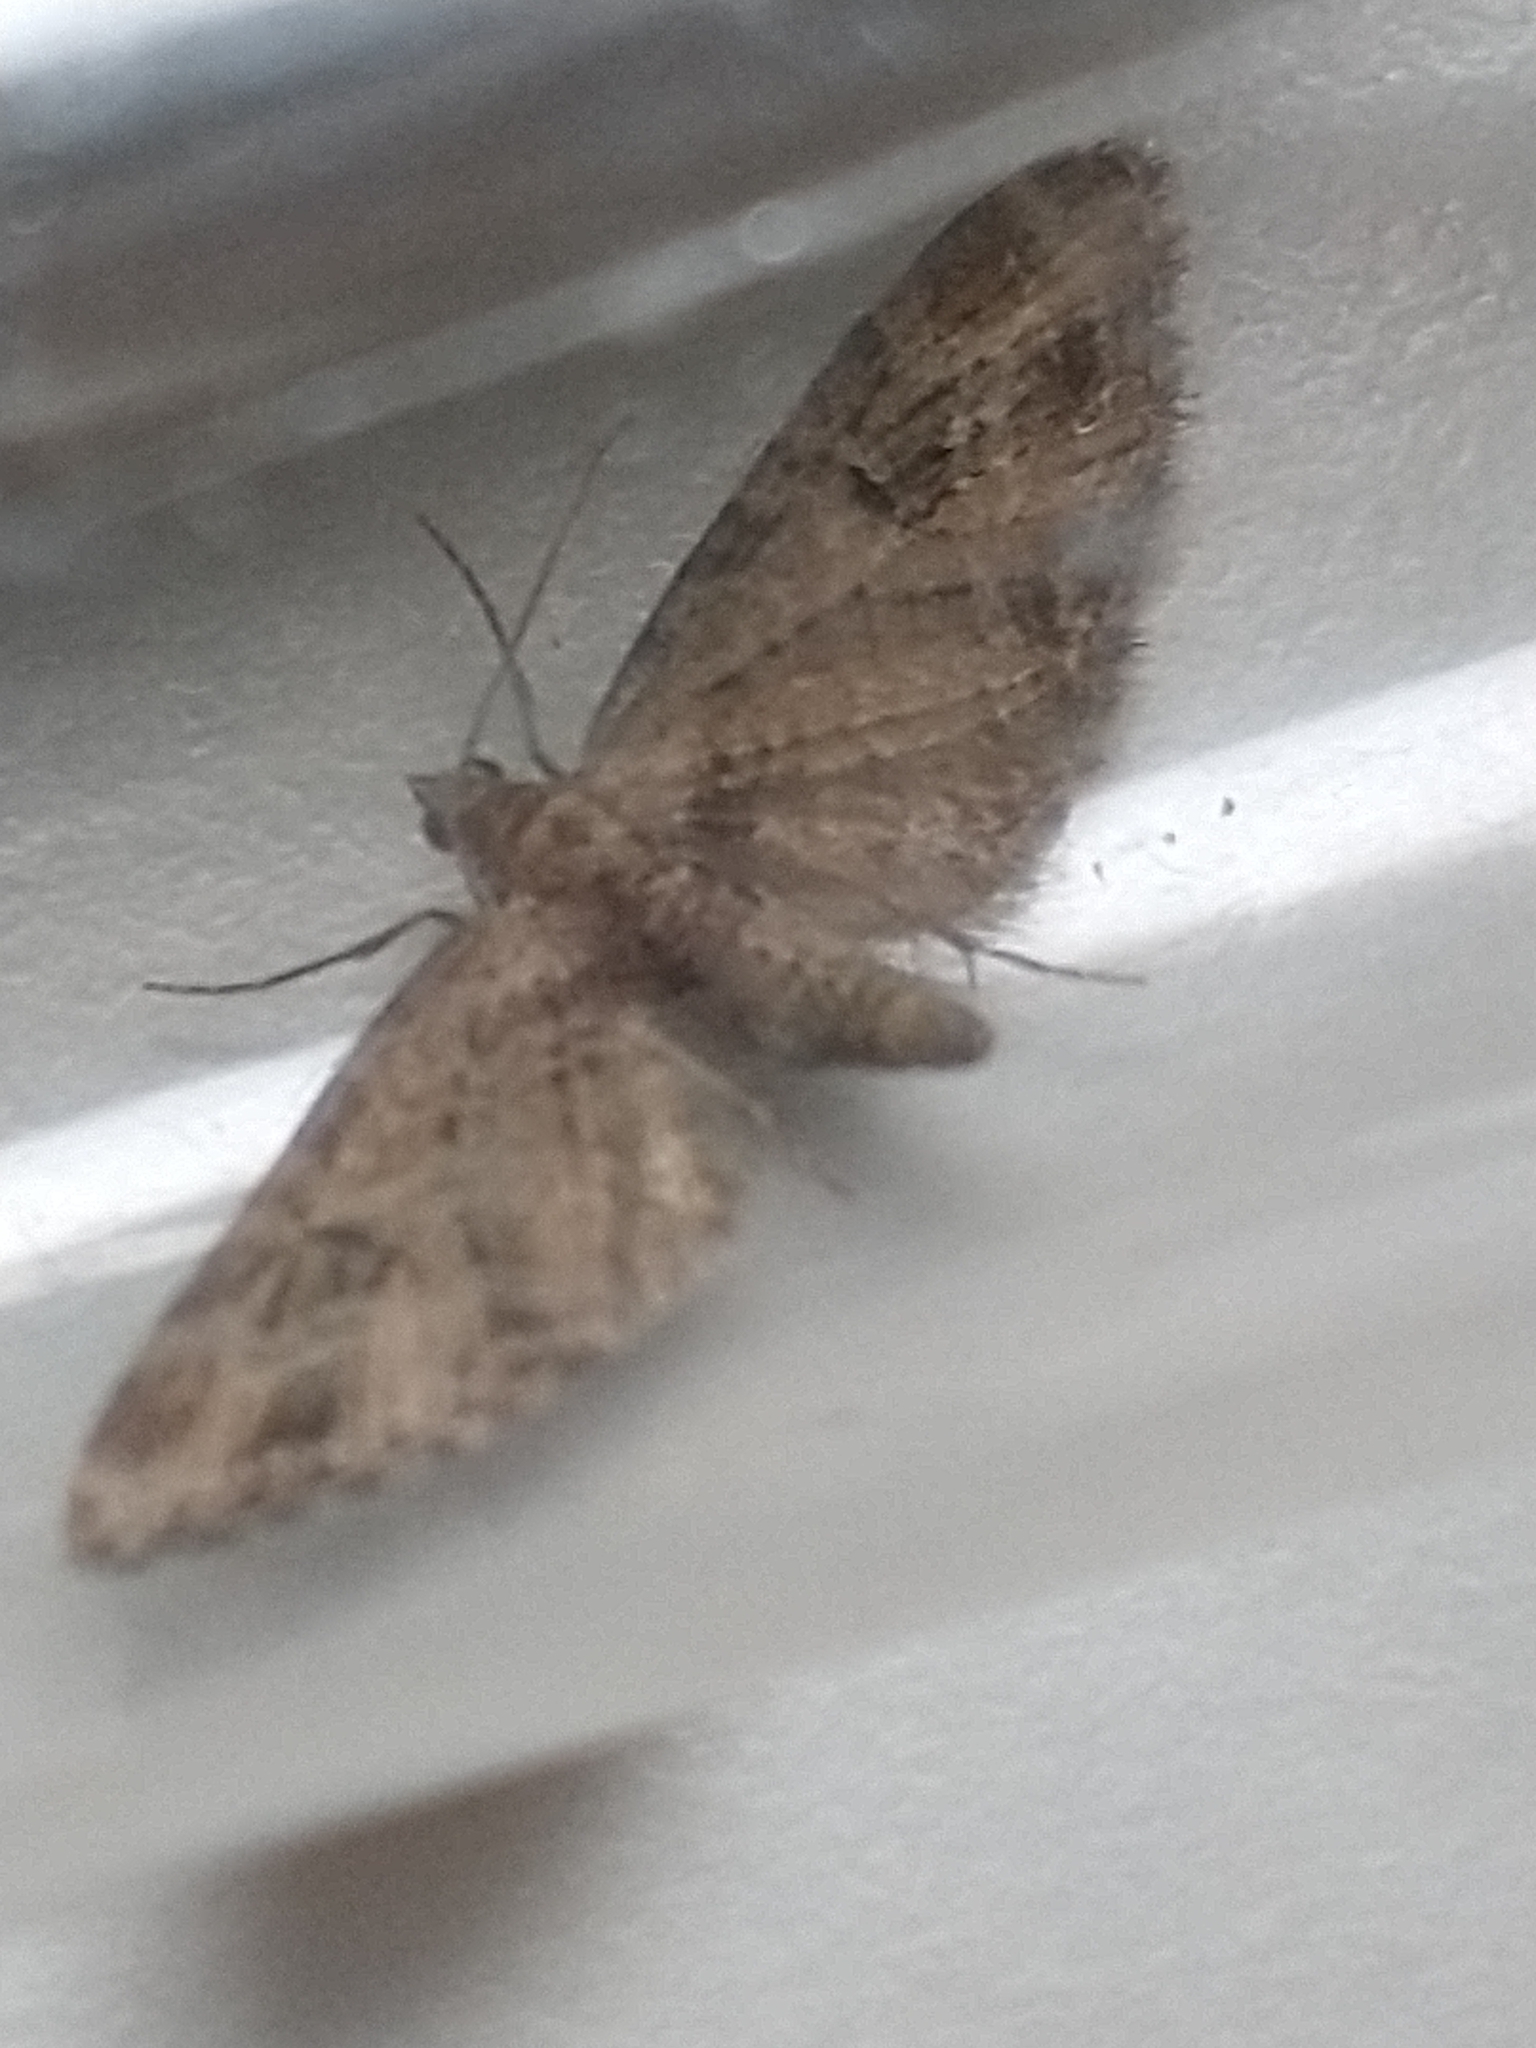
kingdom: Animalia
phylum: Arthropoda
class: Insecta
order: Lepidoptera
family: Geometridae
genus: Eupithecia
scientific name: Eupithecia exiguata
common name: Mottled pug
